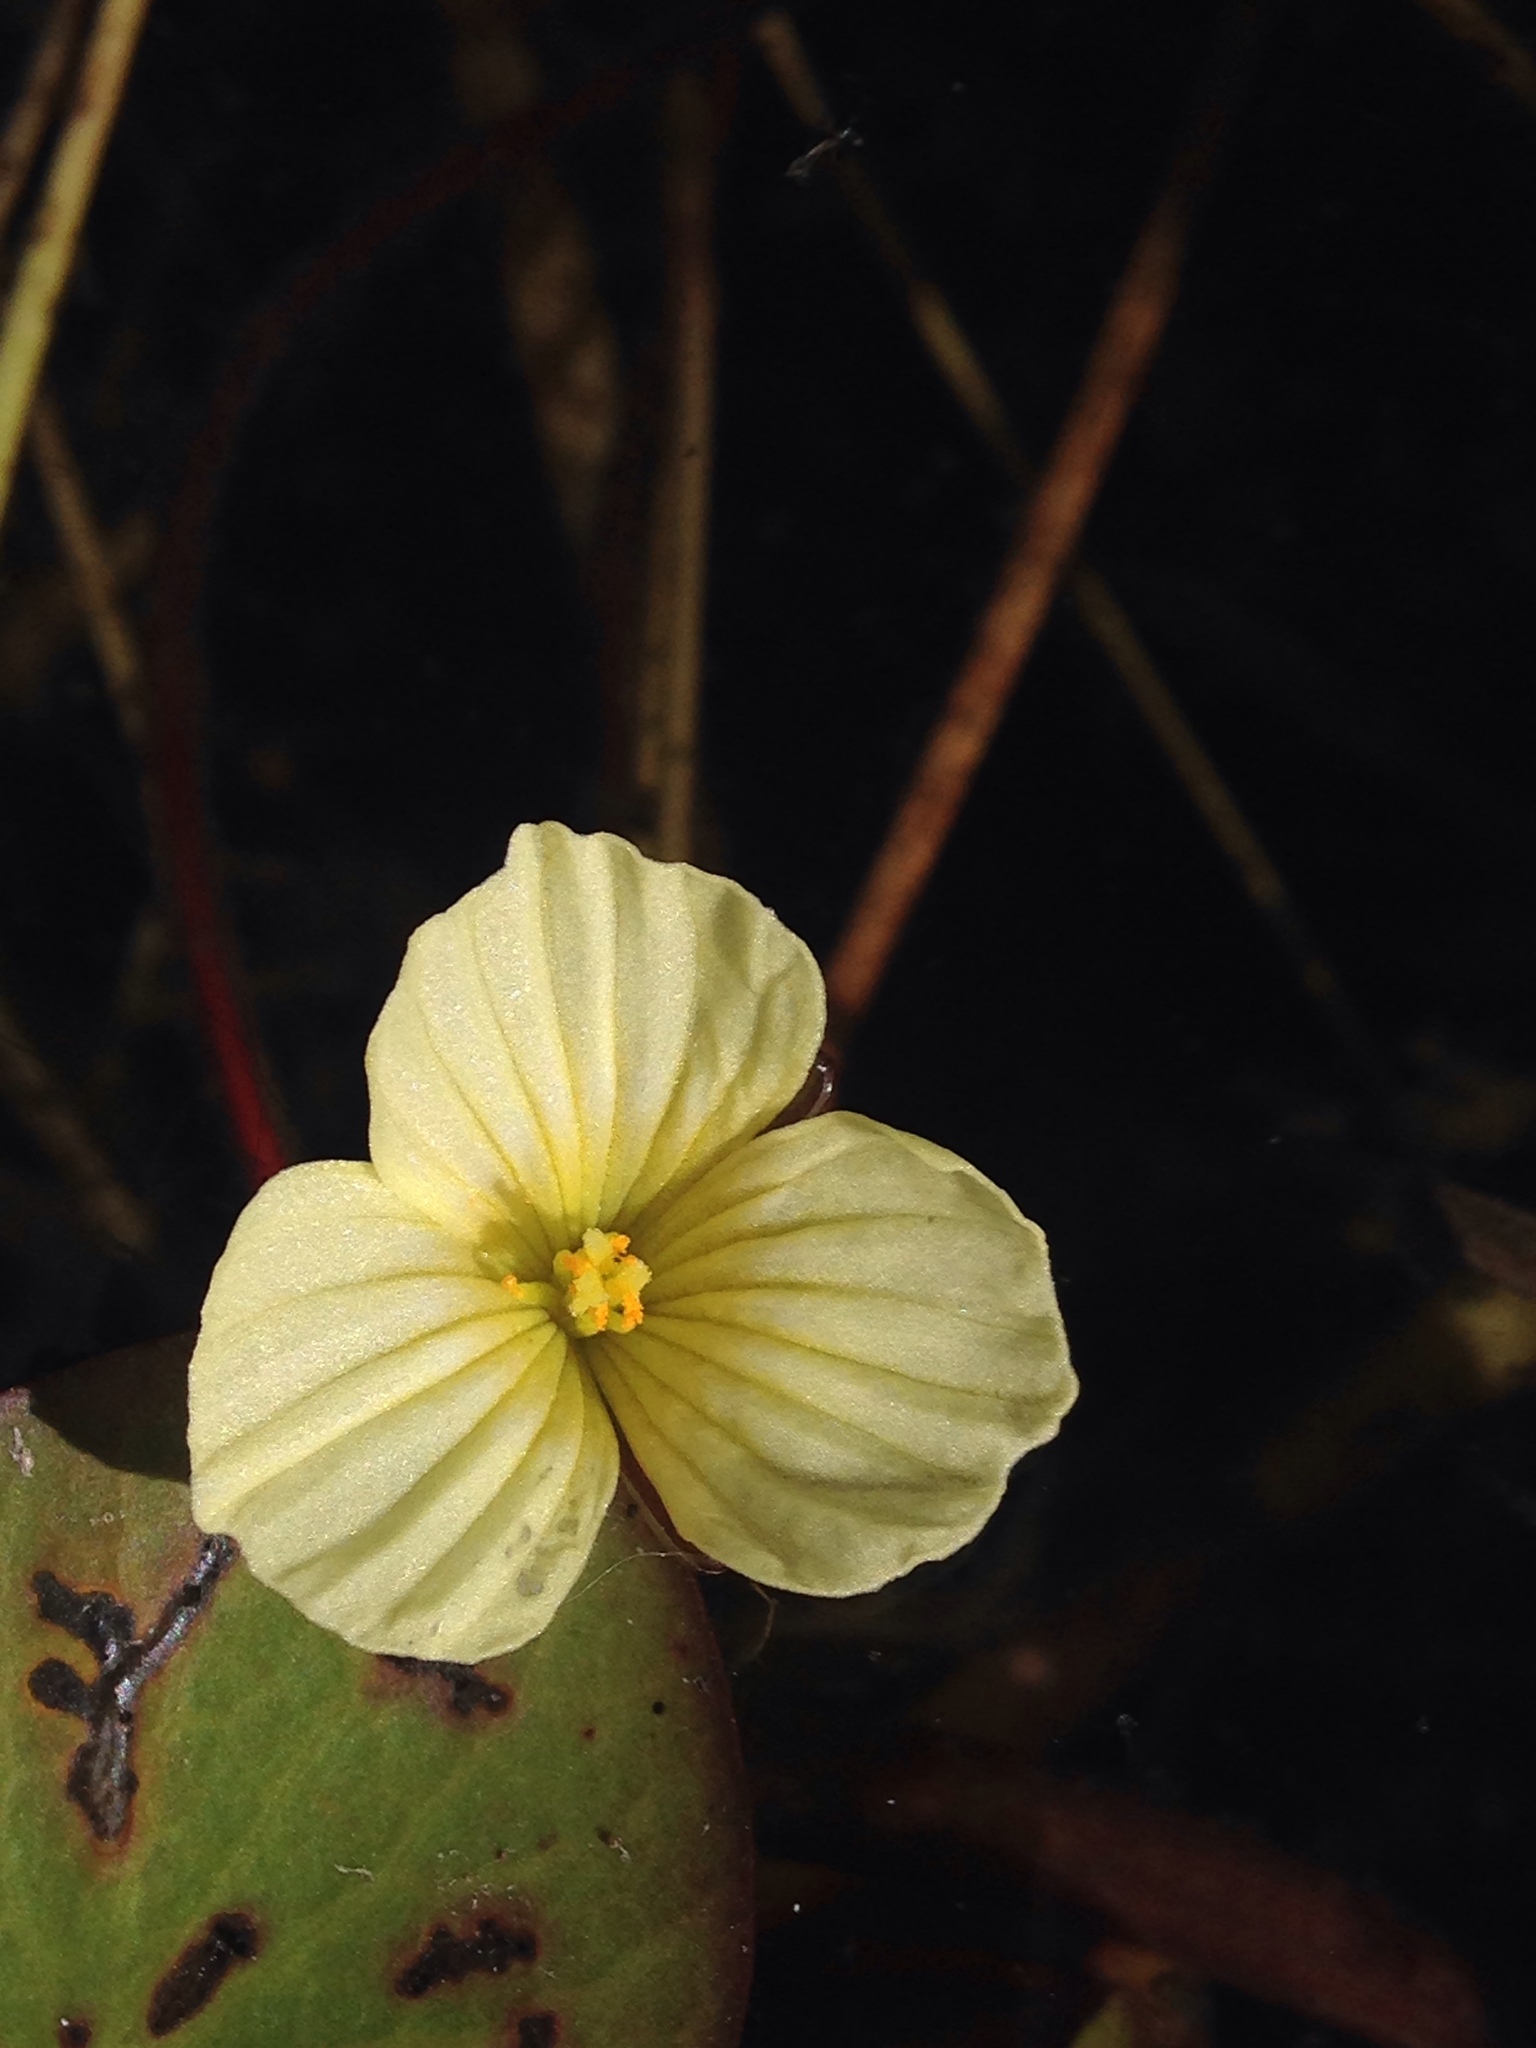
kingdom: Plantae
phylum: Tracheophyta
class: Liliopsida
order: Alismatales
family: Hydrocharitaceae
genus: Ottelia
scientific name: Ottelia ulvifolia
